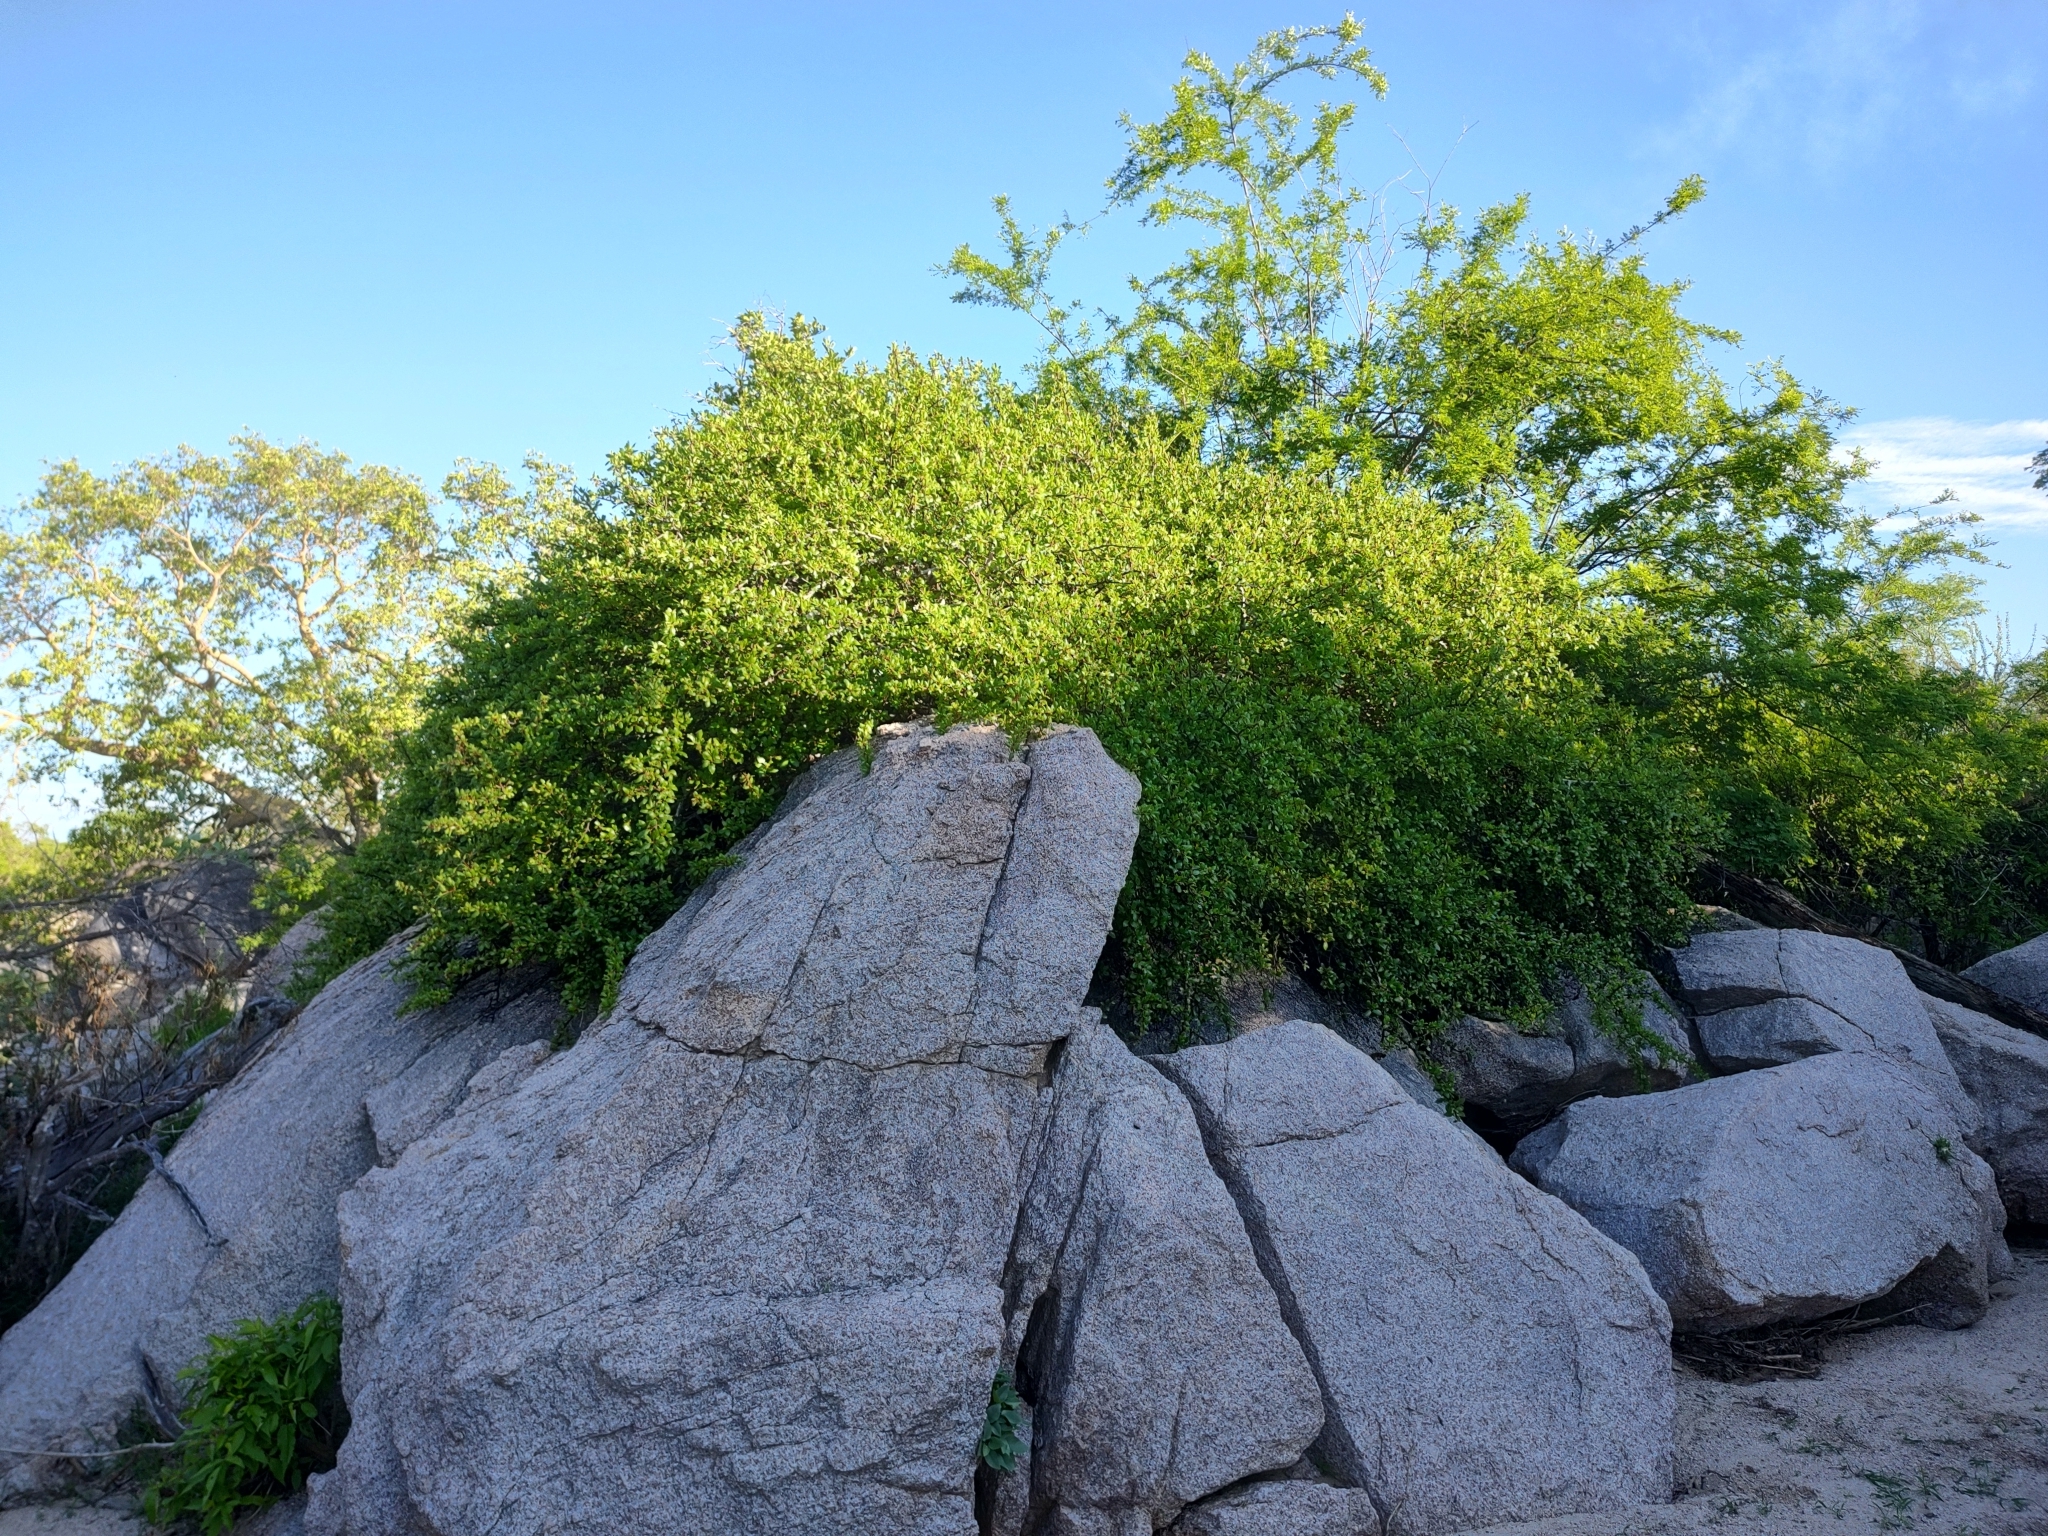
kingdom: Plantae
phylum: Tracheophyta
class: Magnoliopsida
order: Sapindales
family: Burseraceae
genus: Bursera
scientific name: Bursera rupicola
